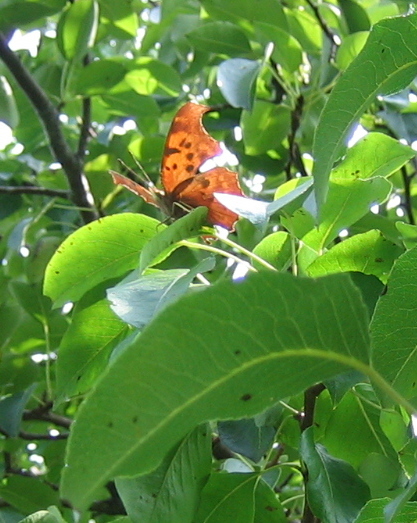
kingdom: Animalia
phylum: Arthropoda
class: Insecta
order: Lepidoptera
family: Nymphalidae
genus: Polygonia
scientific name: Polygonia interrogationis
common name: Question mark
